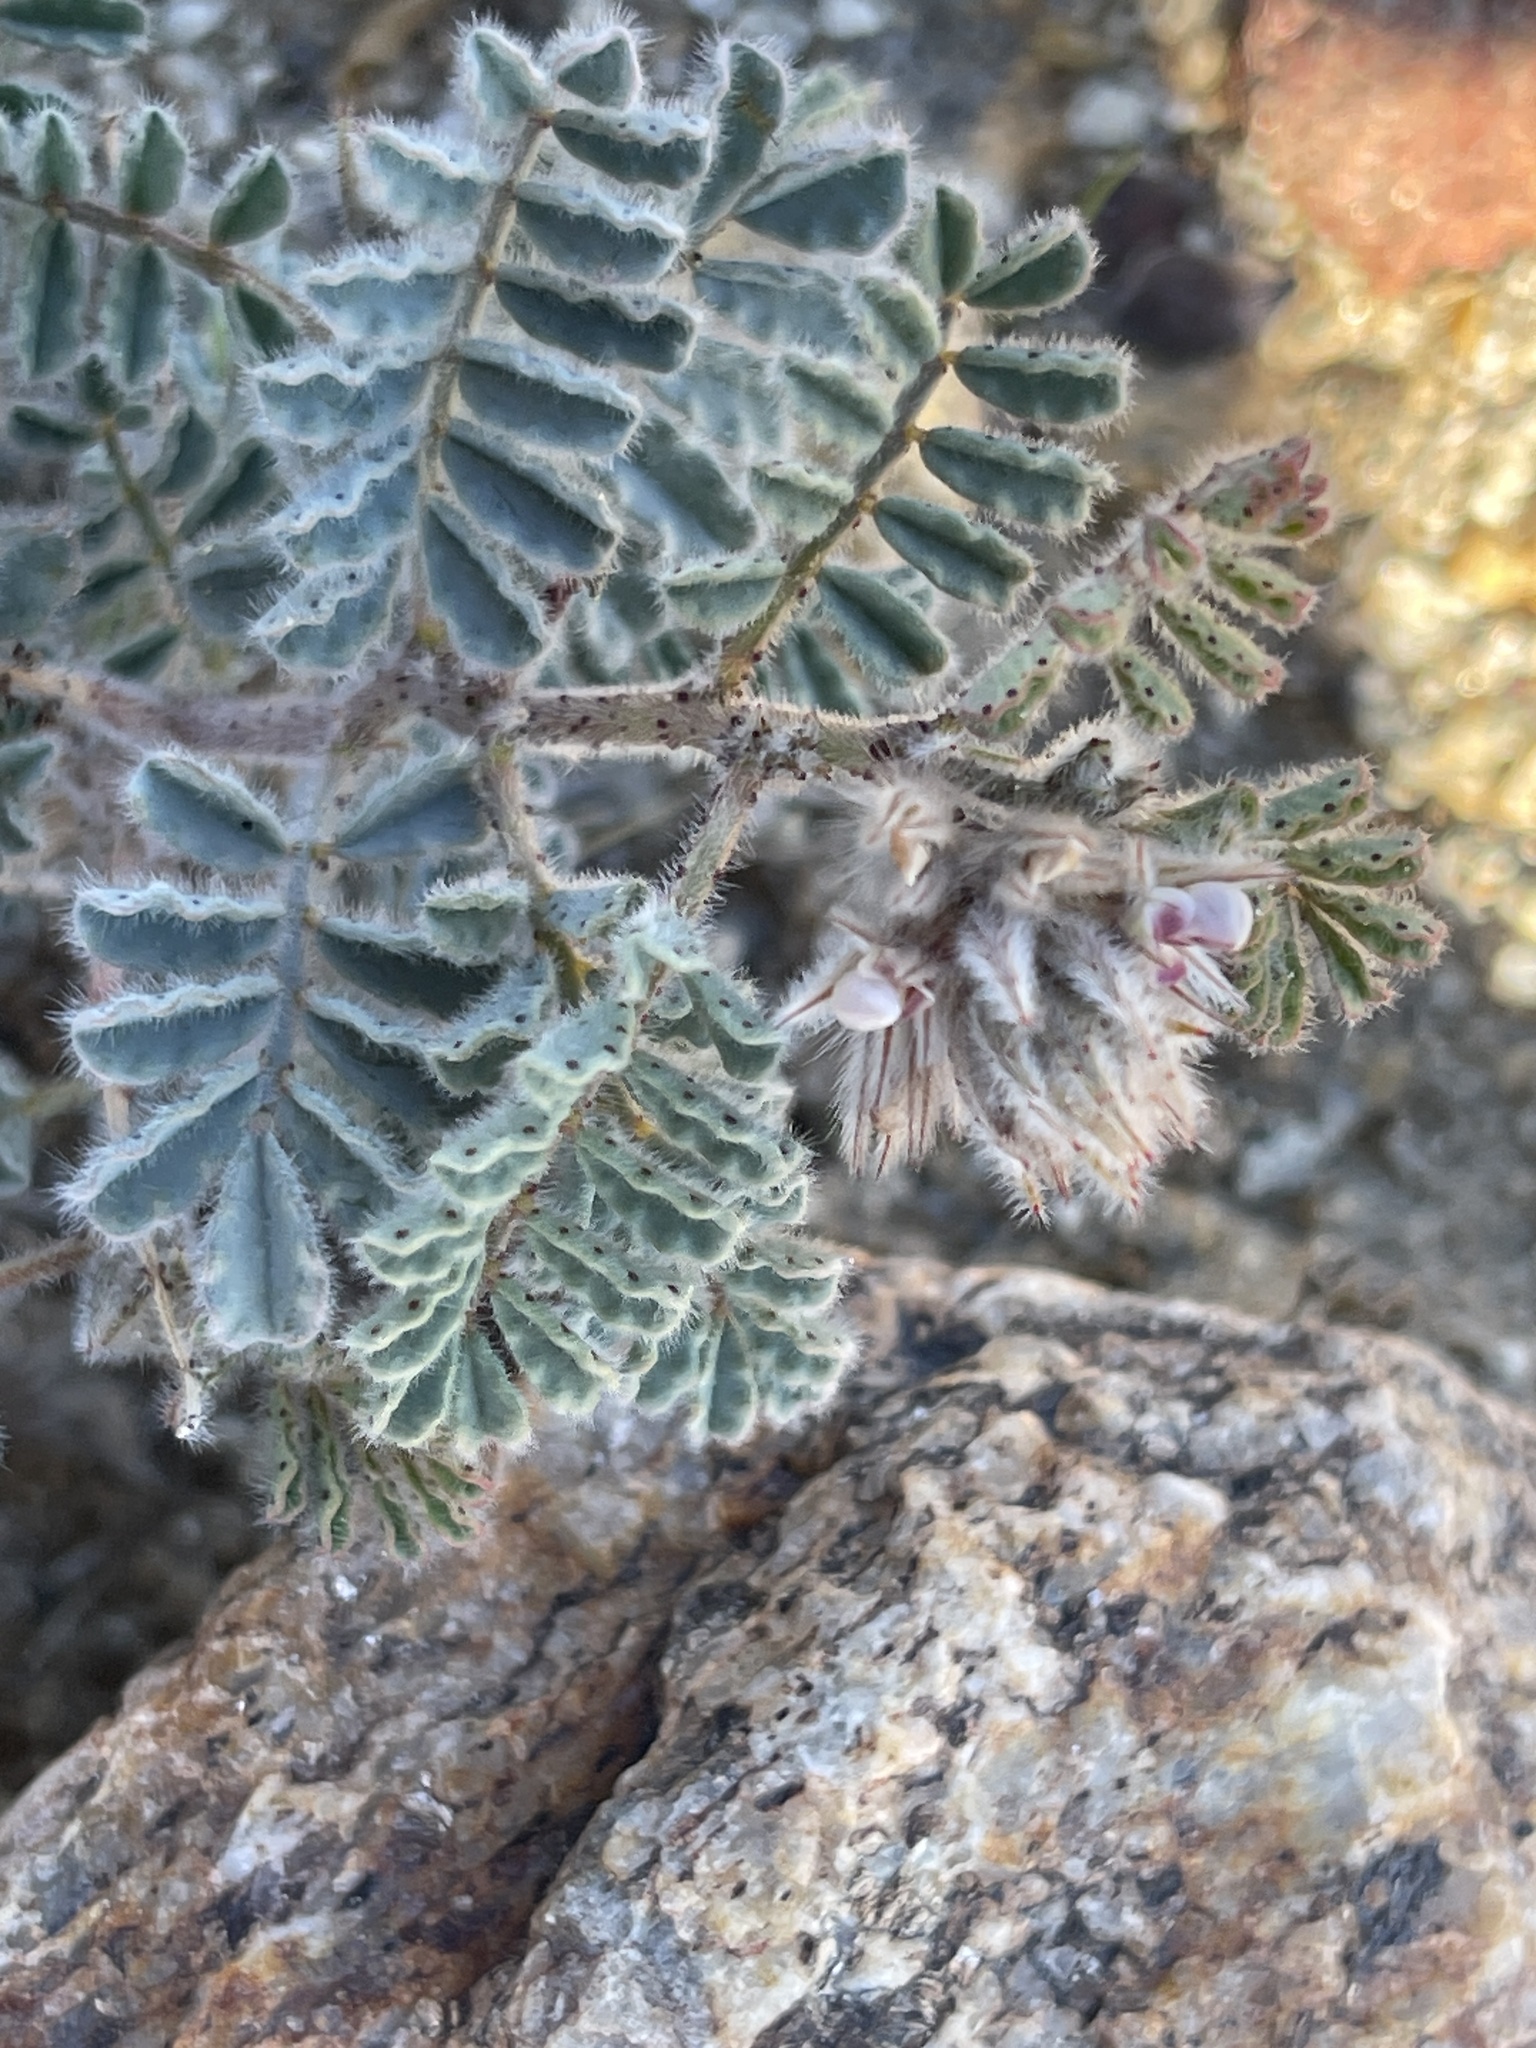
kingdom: Plantae
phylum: Tracheophyta
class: Magnoliopsida
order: Fabales
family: Fabaceae
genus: Dalea
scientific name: Dalea mollissima
